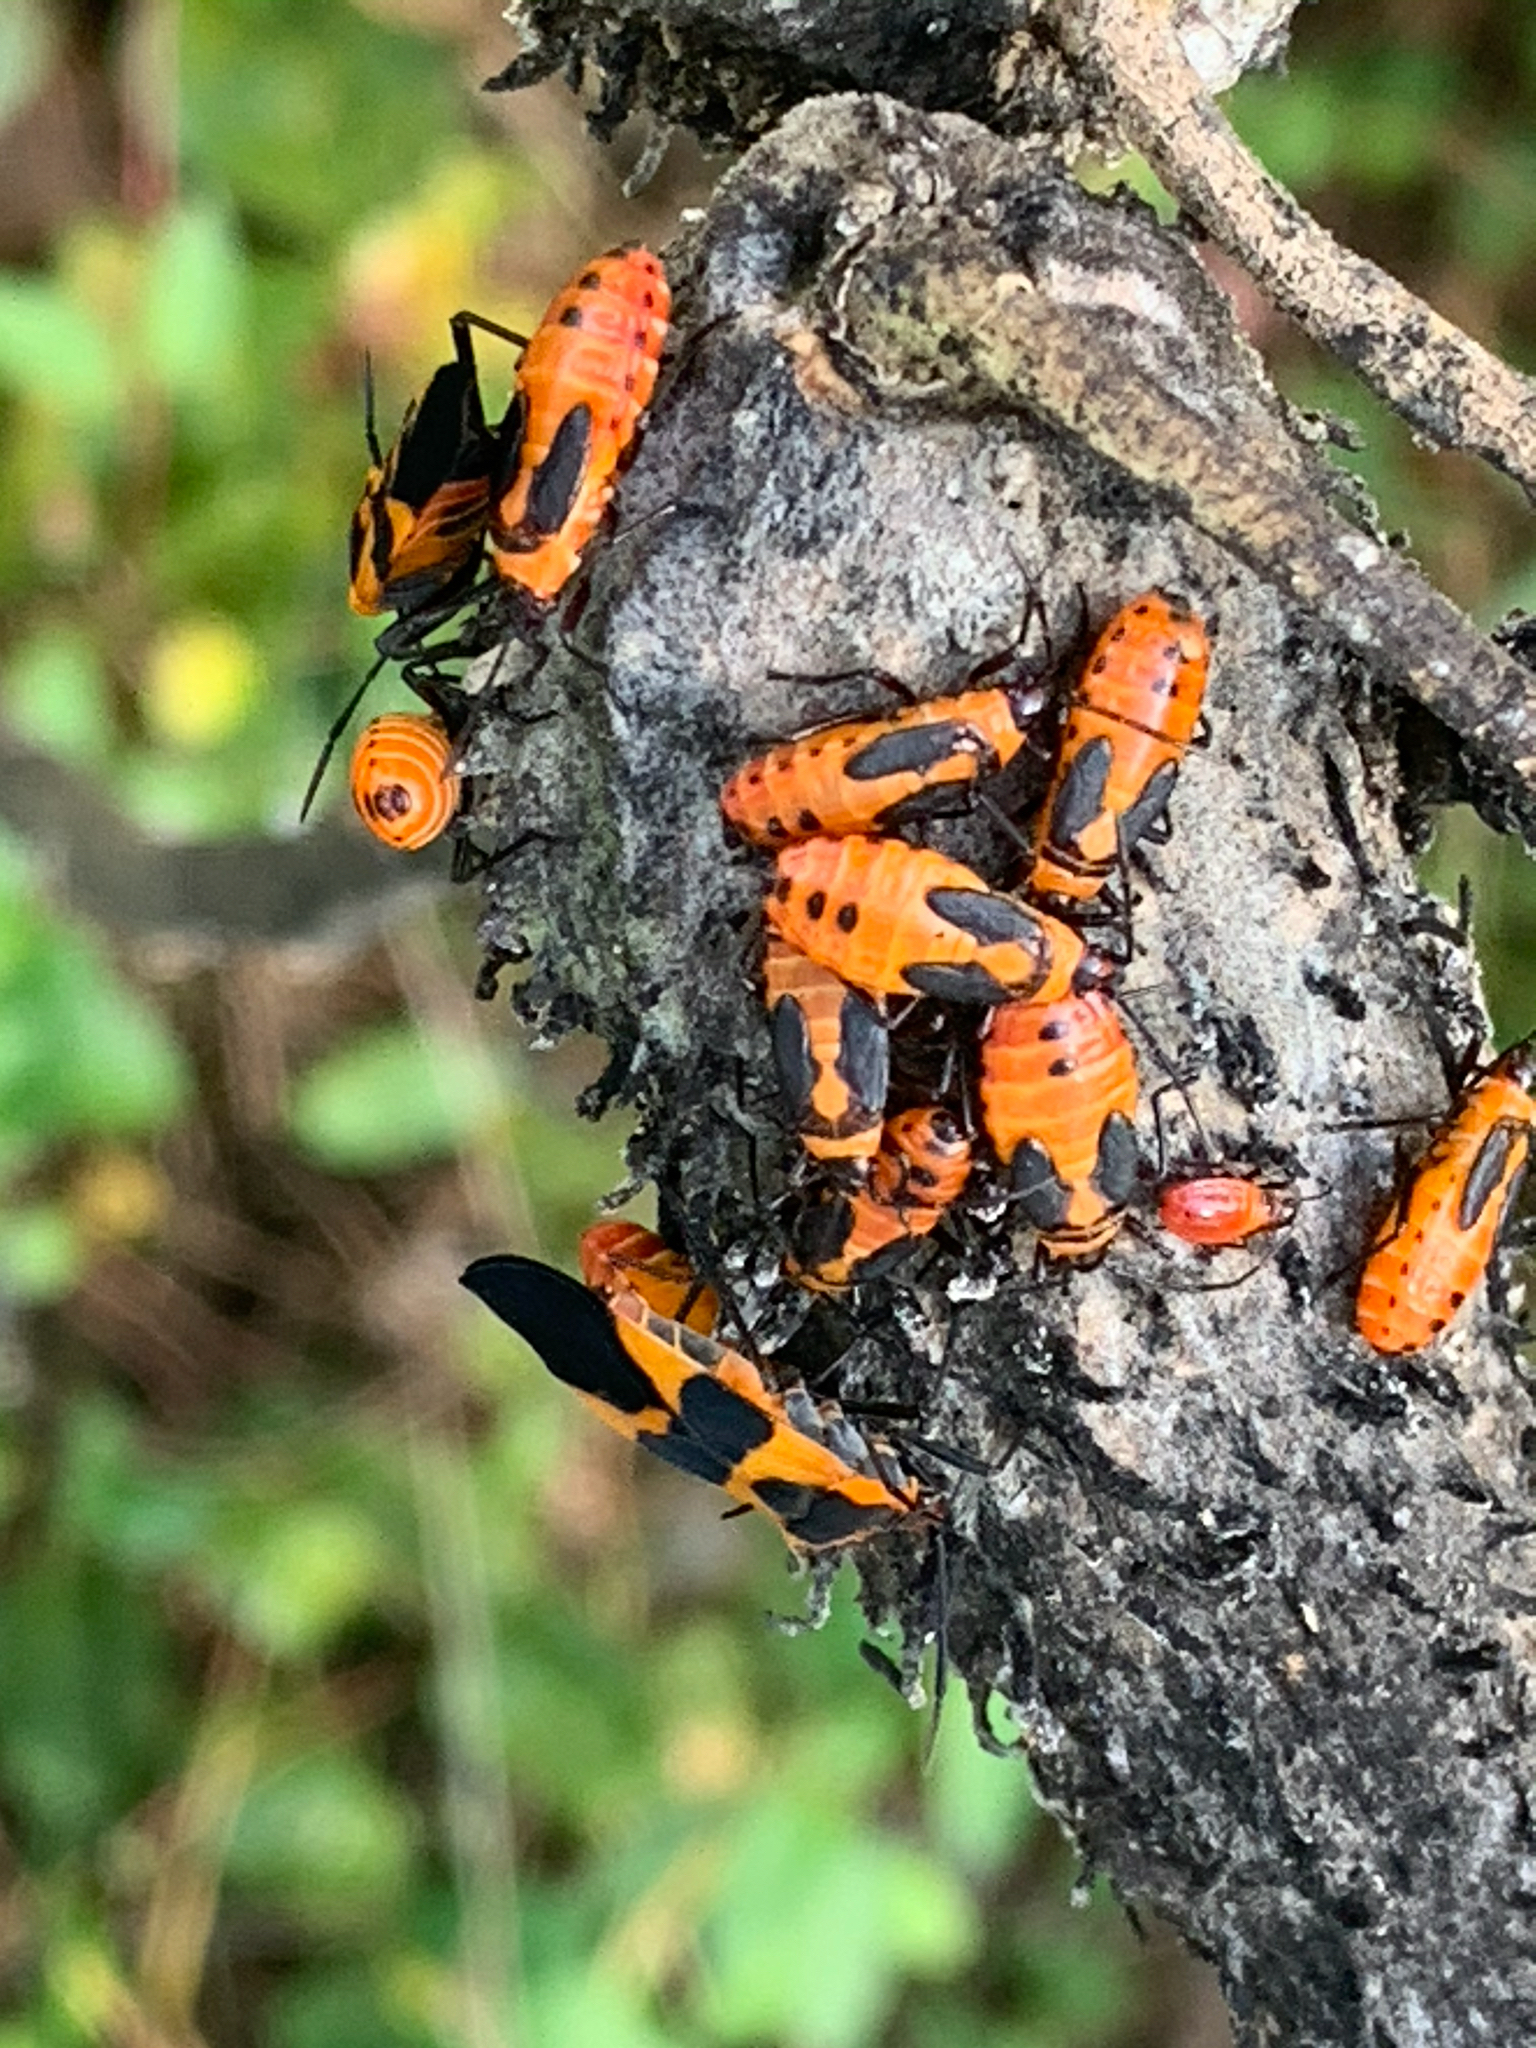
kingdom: Animalia
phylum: Arthropoda
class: Insecta
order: Hemiptera
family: Lygaeidae
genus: Oncopeltus
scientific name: Oncopeltus fasciatus
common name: Large milkweed bug
